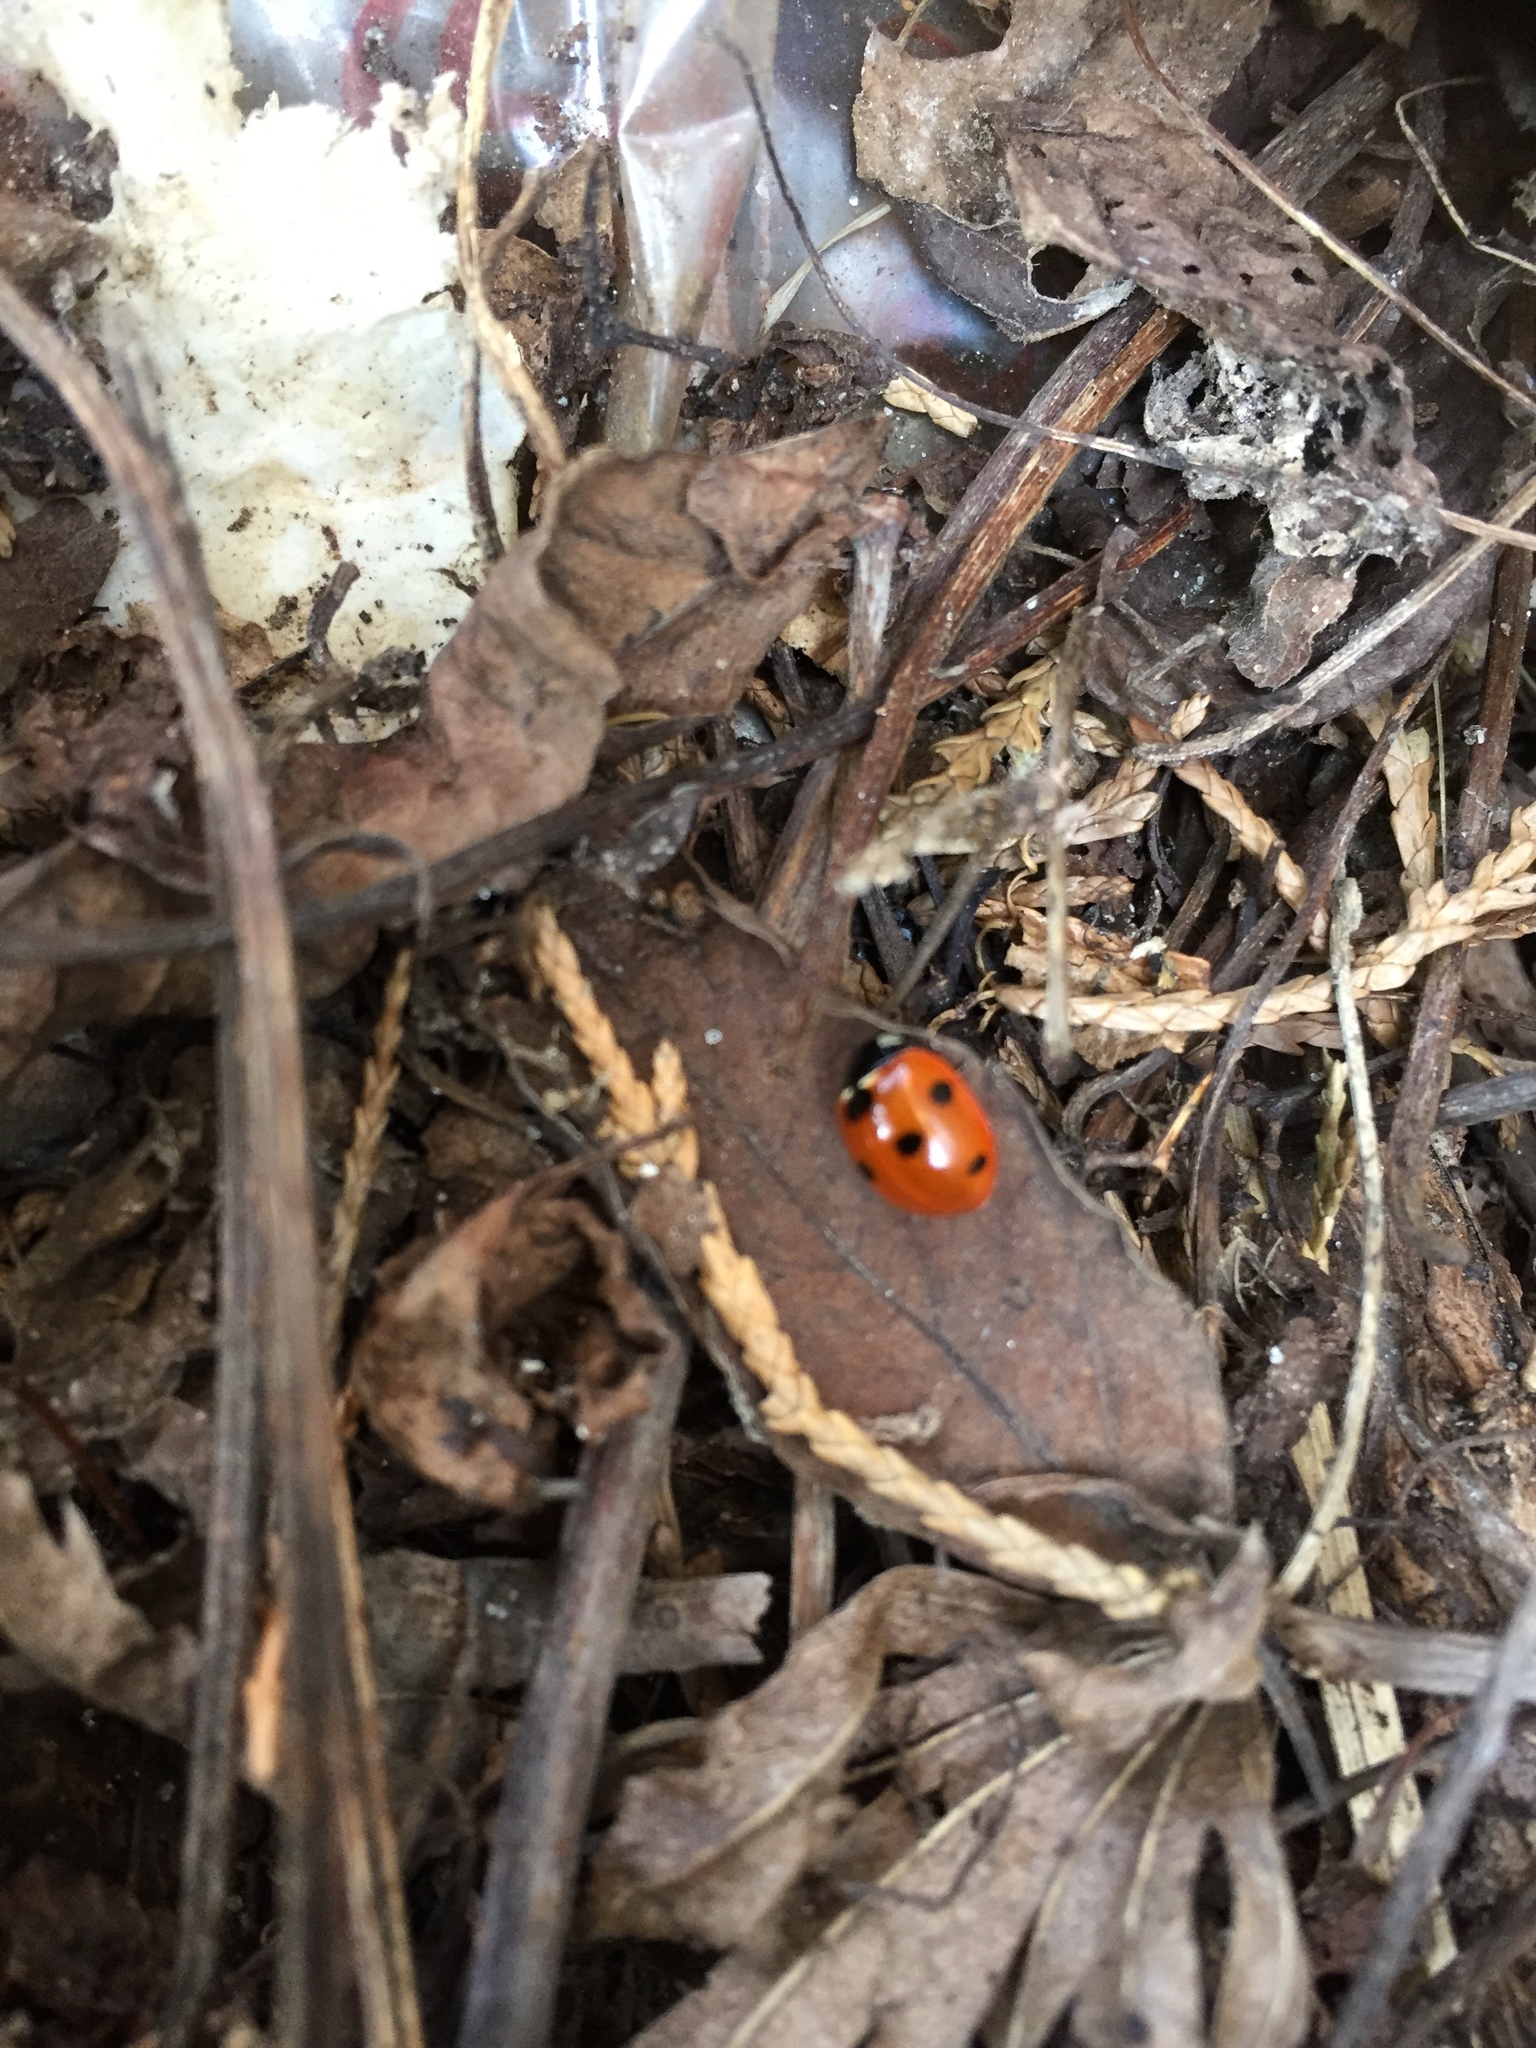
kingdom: Animalia
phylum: Arthropoda
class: Insecta
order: Coleoptera
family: Coccinellidae
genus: Coccinella
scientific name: Coccinella septempunctata
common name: Sevenspotted lady beetle
